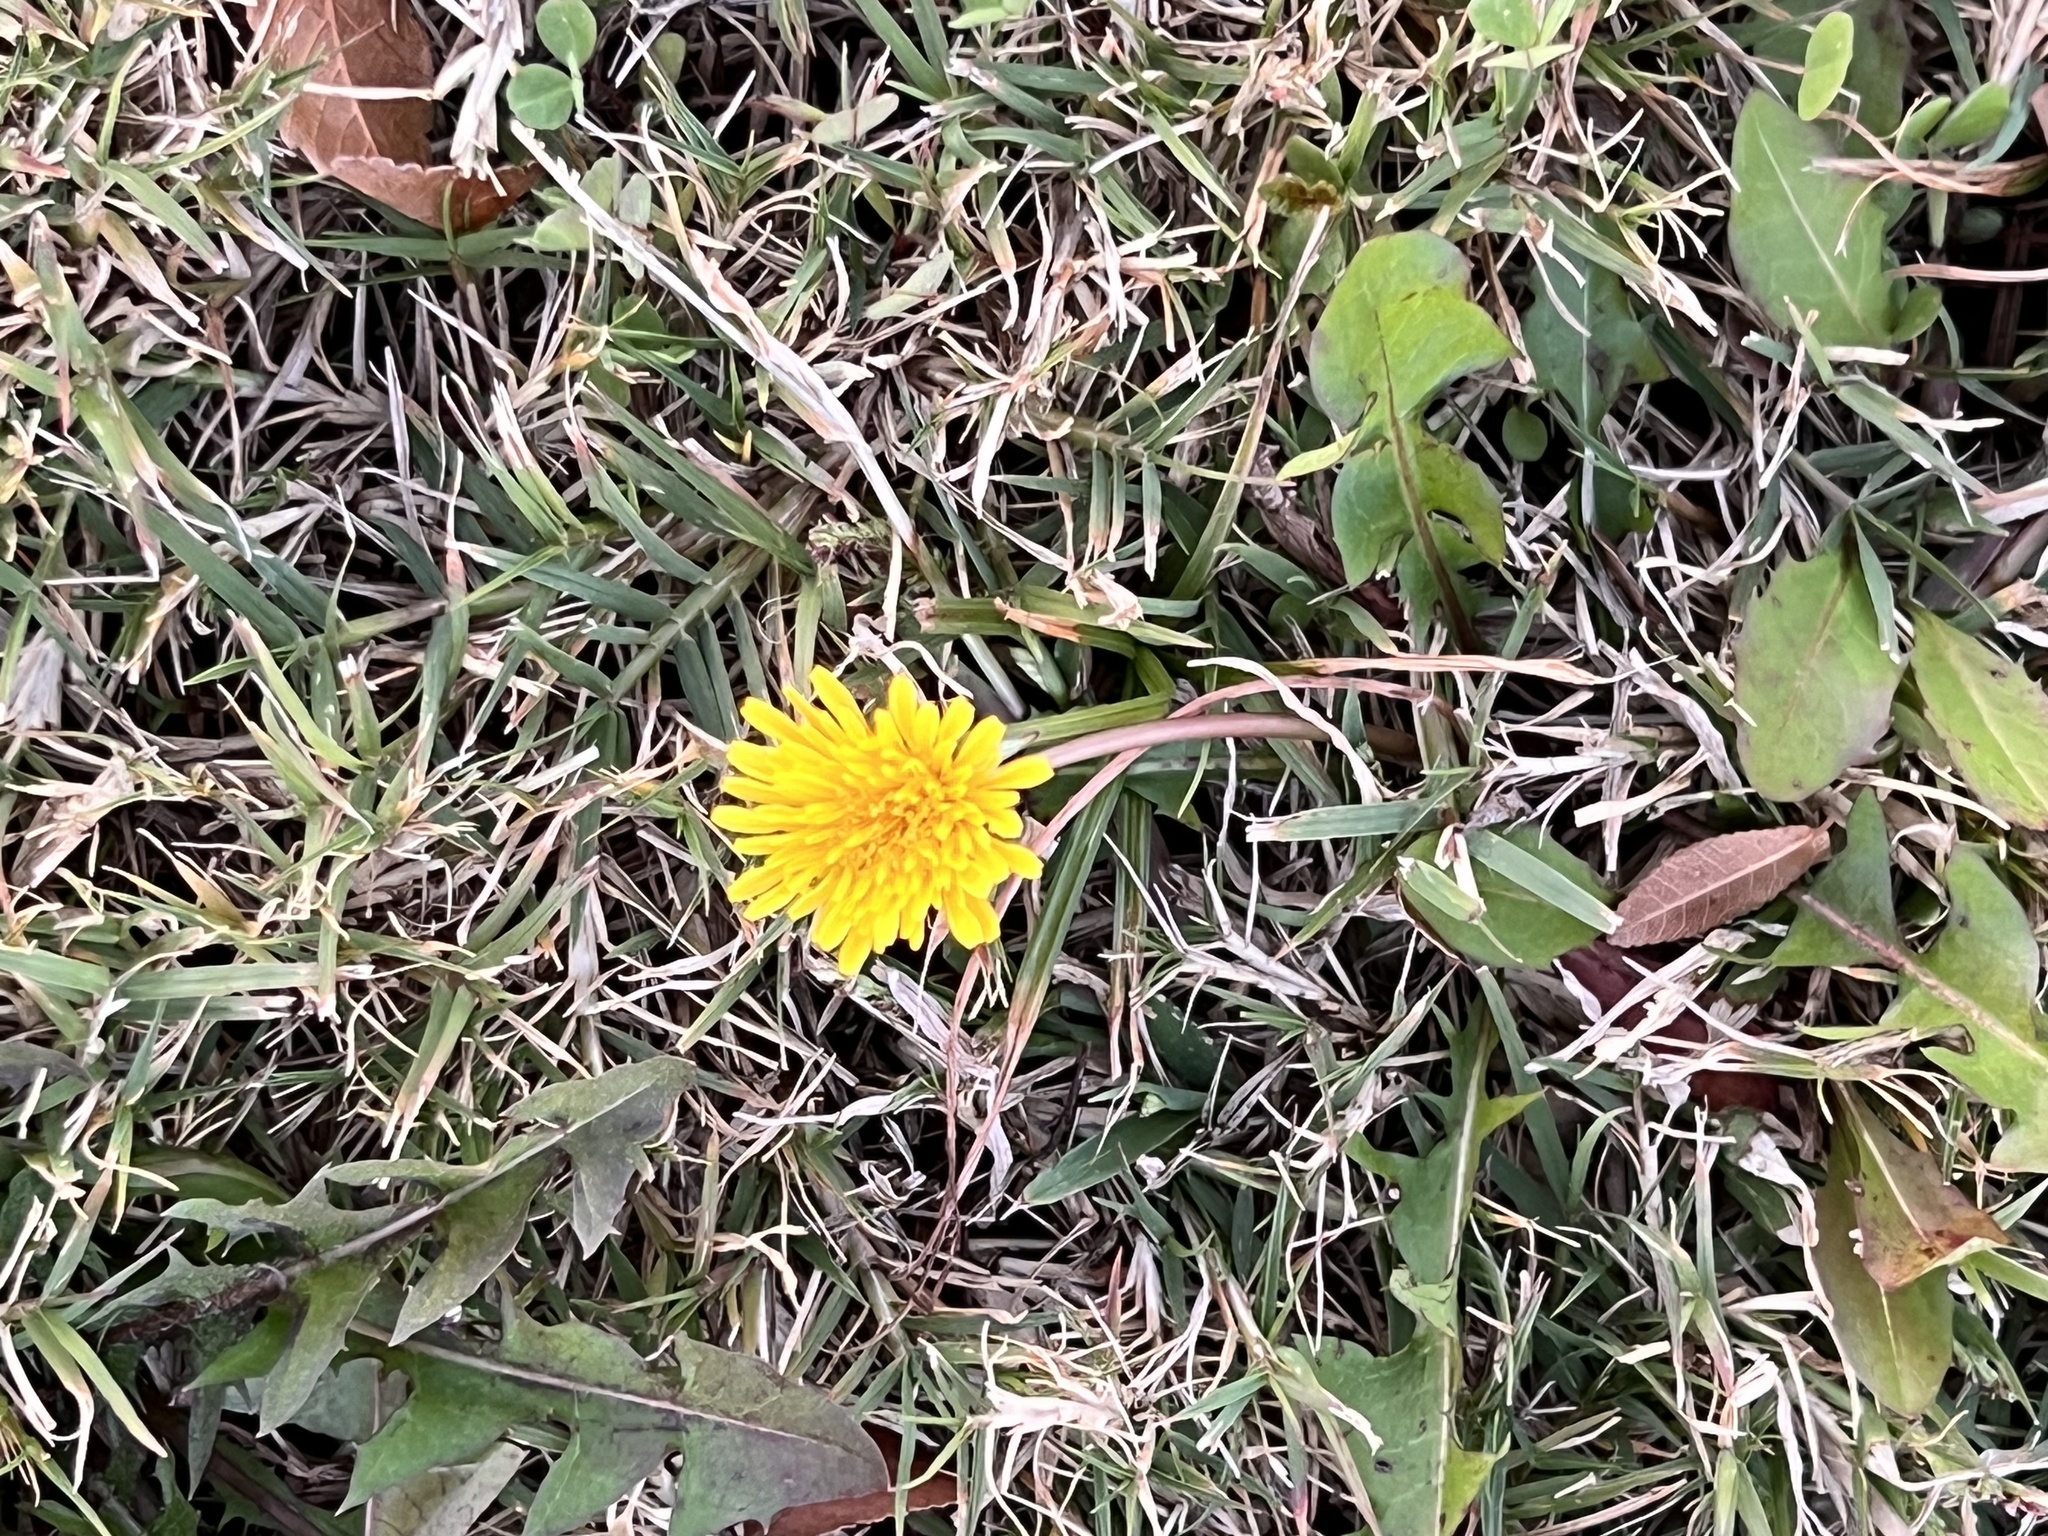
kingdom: Plantae
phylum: Tracheophyta
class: Magnoliopsida
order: Asterales
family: Asteraceae
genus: Taraxacum
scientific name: Taraxacum officinale
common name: Common dandelion
